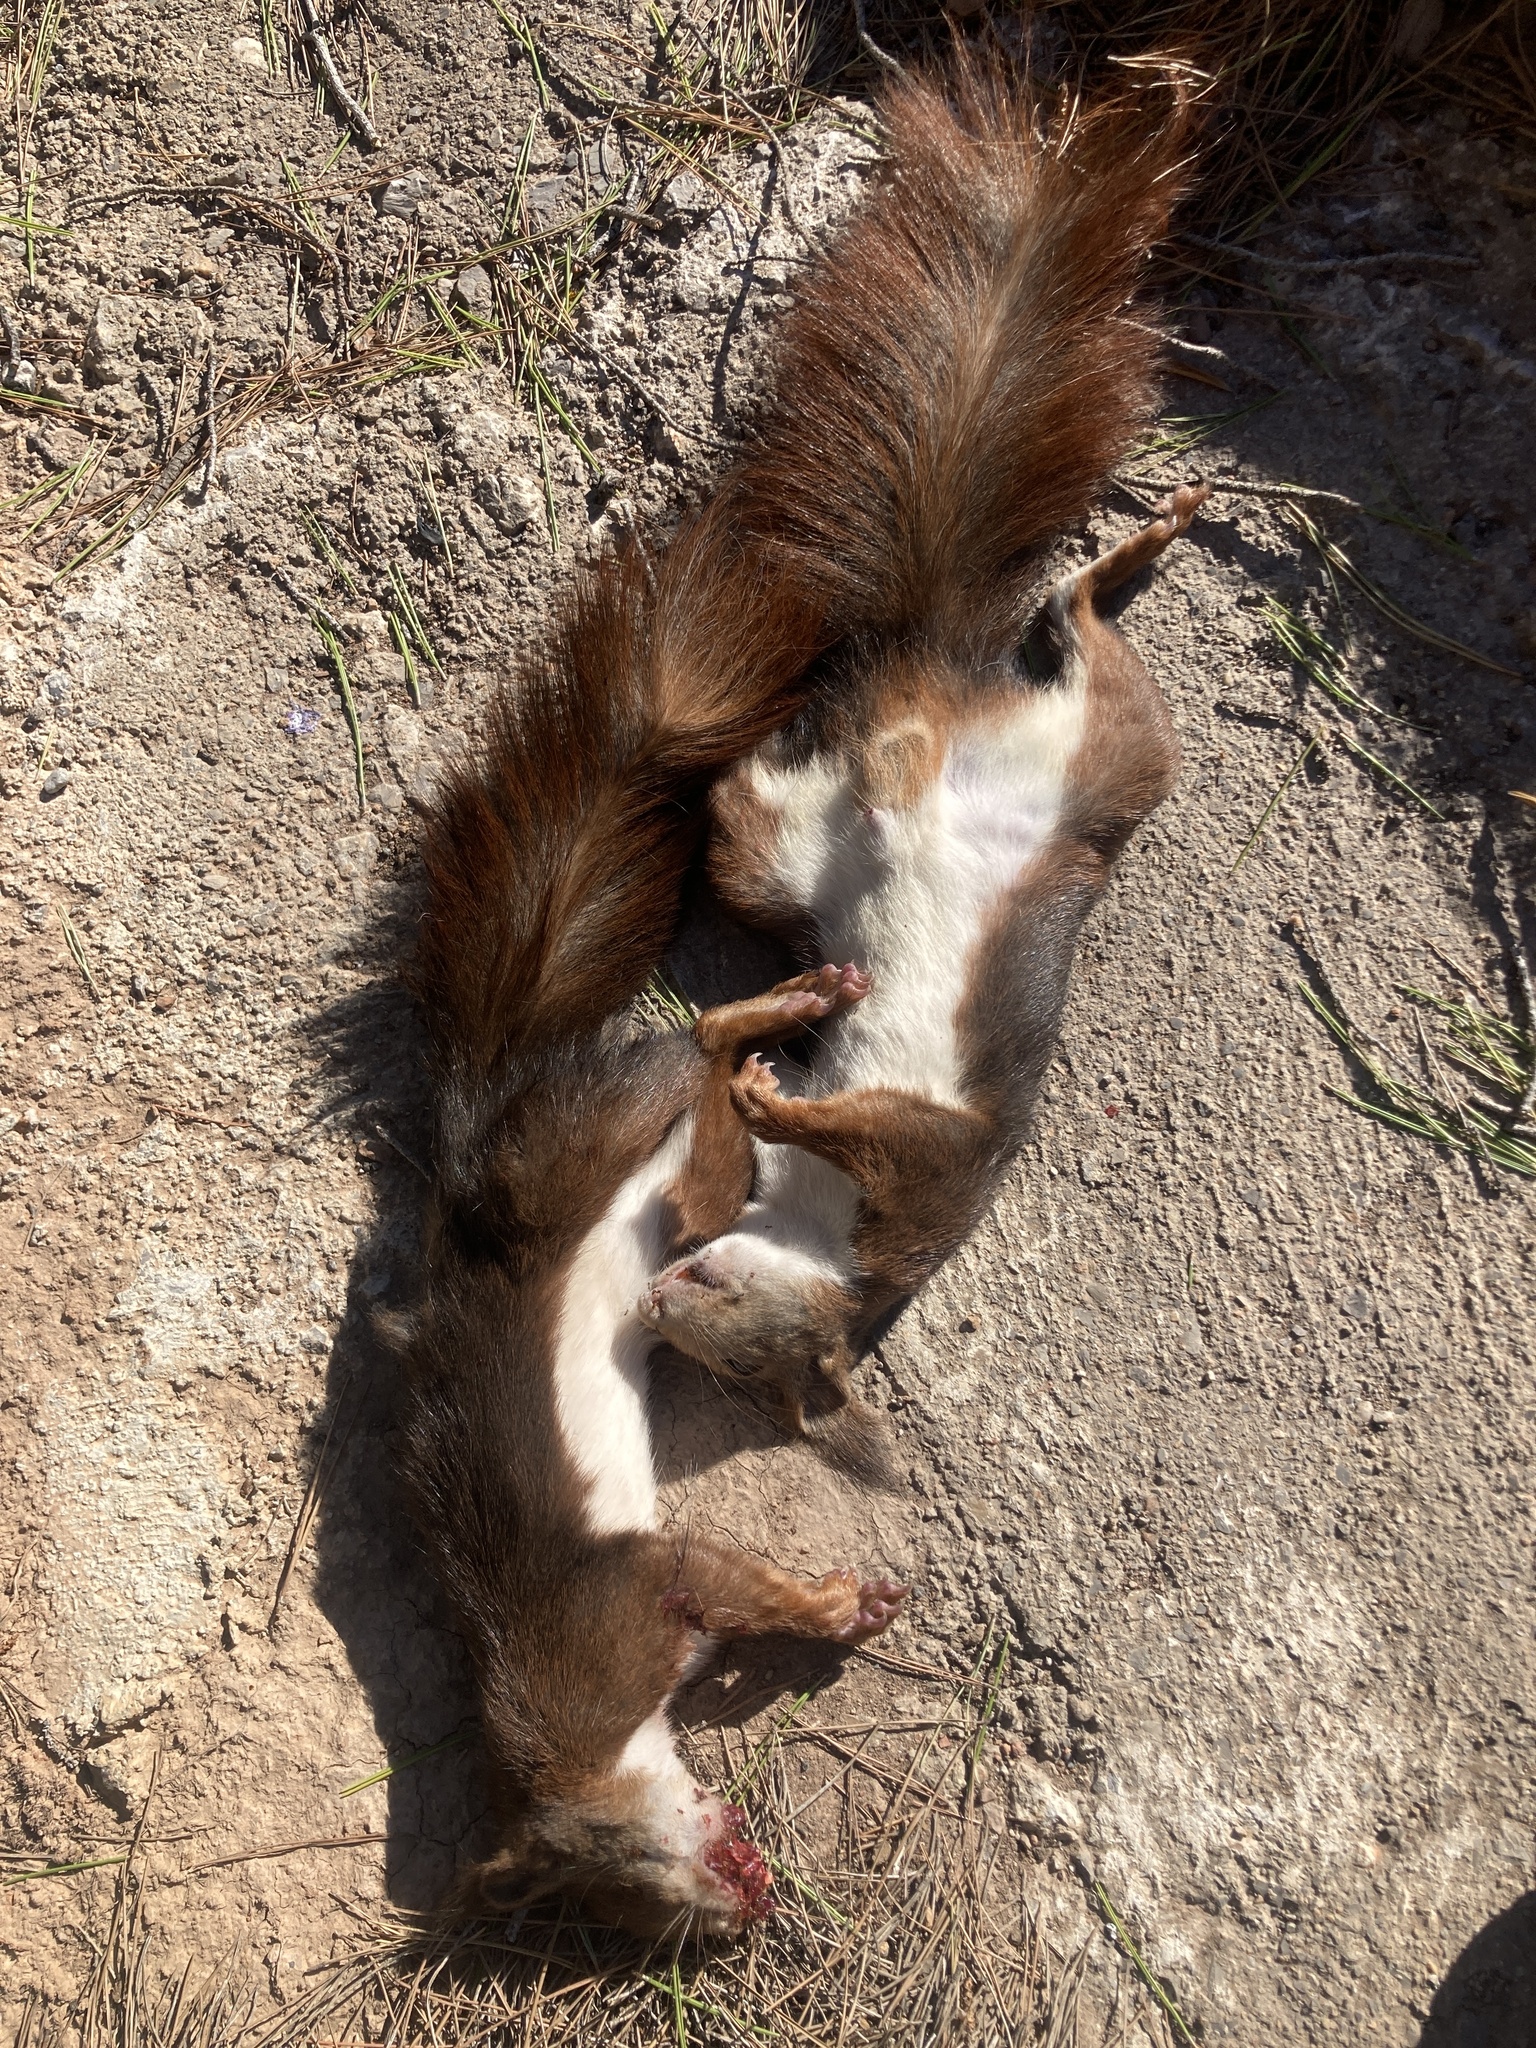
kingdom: Animalia
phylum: Chordata
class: Mammalia
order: Rodentia
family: Sciuridae
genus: Sciurus
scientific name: Sciurus vulgaris
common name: Eurasian red squirrel
